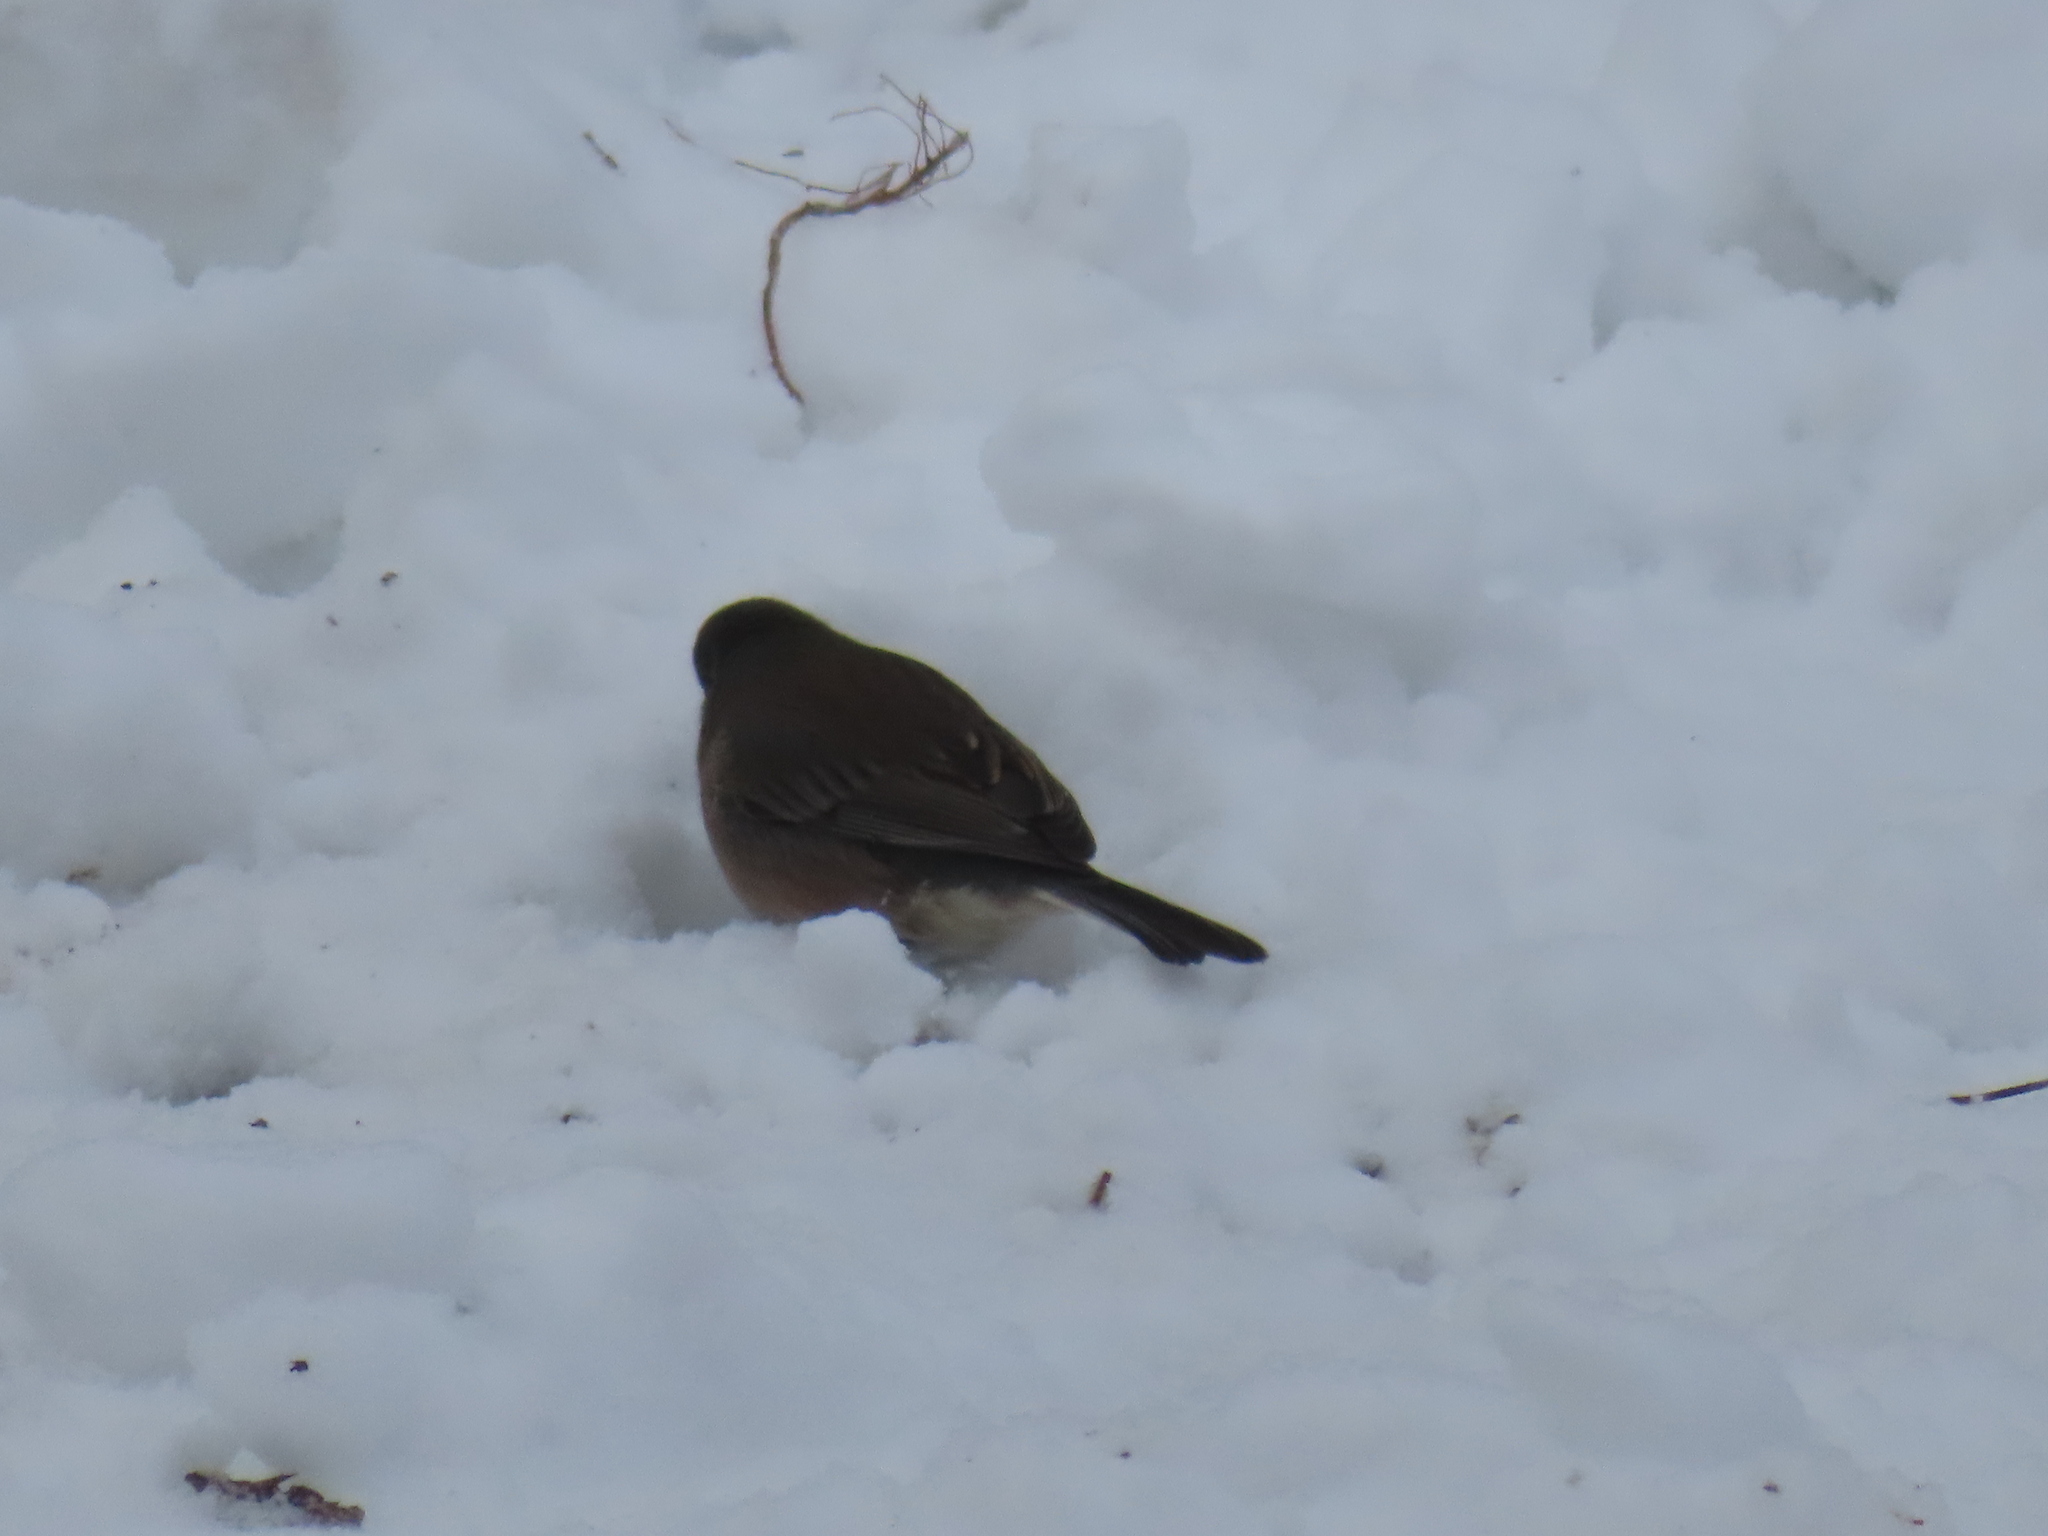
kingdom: Animalia
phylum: Chordata
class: Aves
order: Passeriformes
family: Passerellidae
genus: Junco
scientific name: Junco hyemalis
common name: Dark-eyed junco
